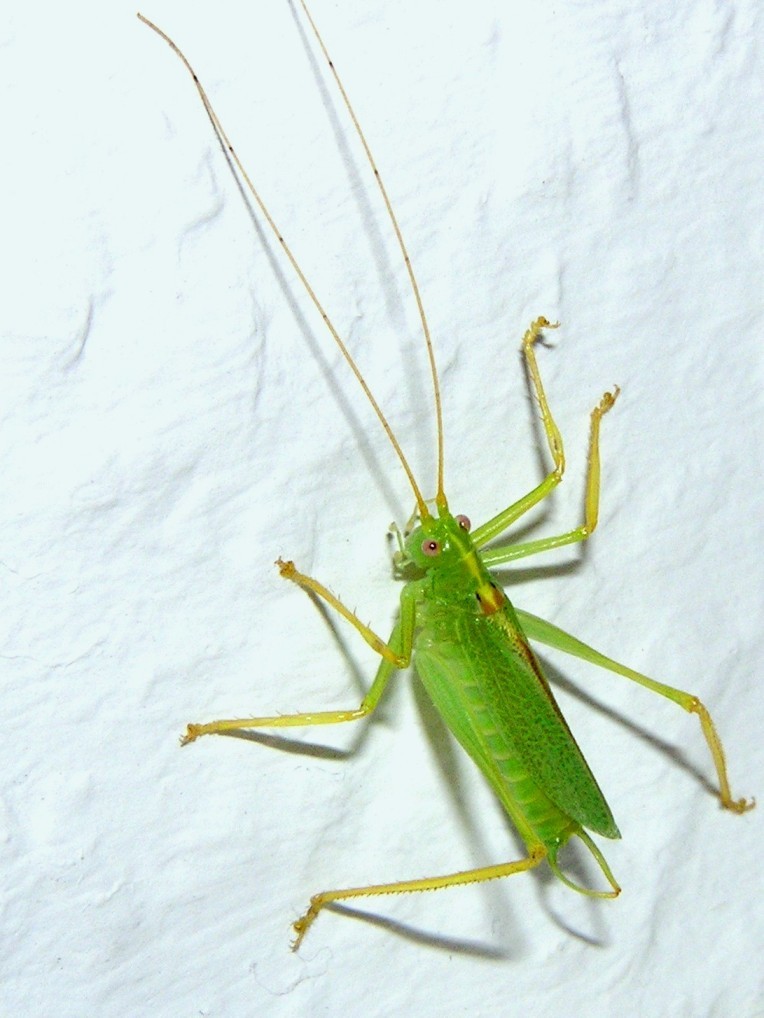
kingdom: Animalia
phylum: Arthropoda
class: Insecta
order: Orthoptera
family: Tettigoniidae
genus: Meconema
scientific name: Meconema thalassinum
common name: Oak bush-cricket
